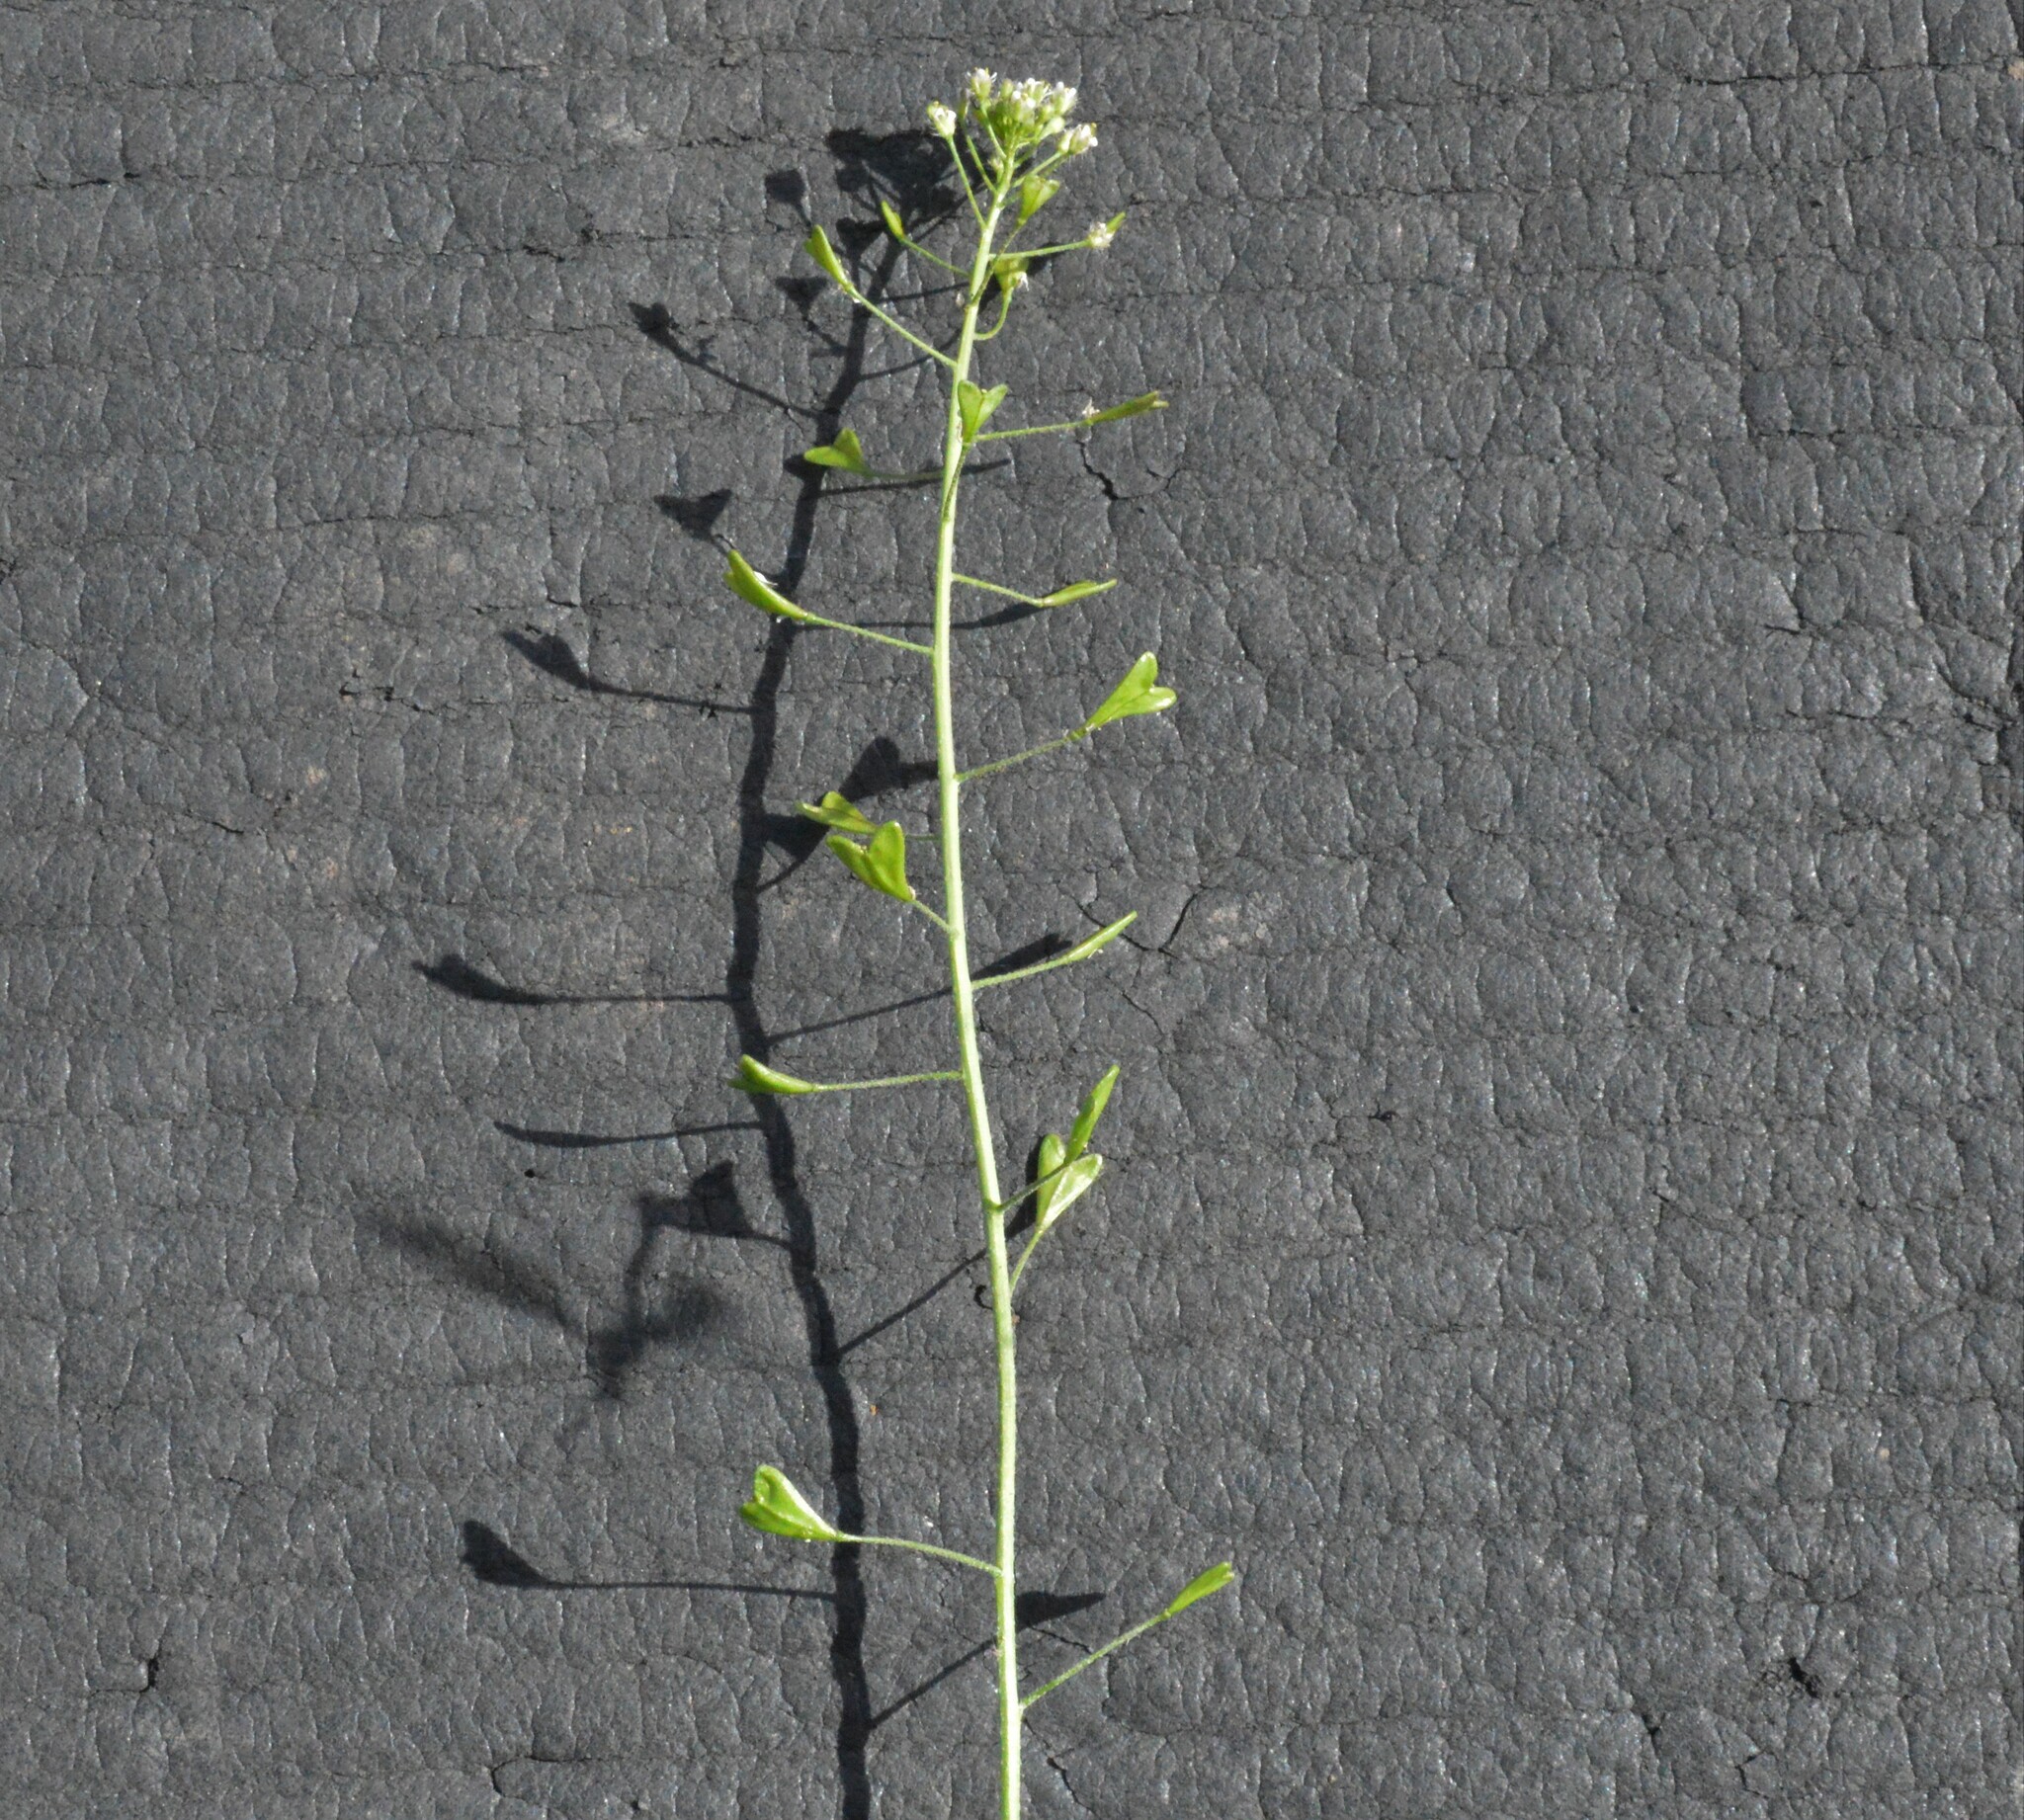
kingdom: Plantae
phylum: Tracheophyta
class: Magnoliopsida
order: Brassicales
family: Brassicaceae
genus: Capsella
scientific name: Capsella bursa-pastoris
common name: Shepherd's purse
